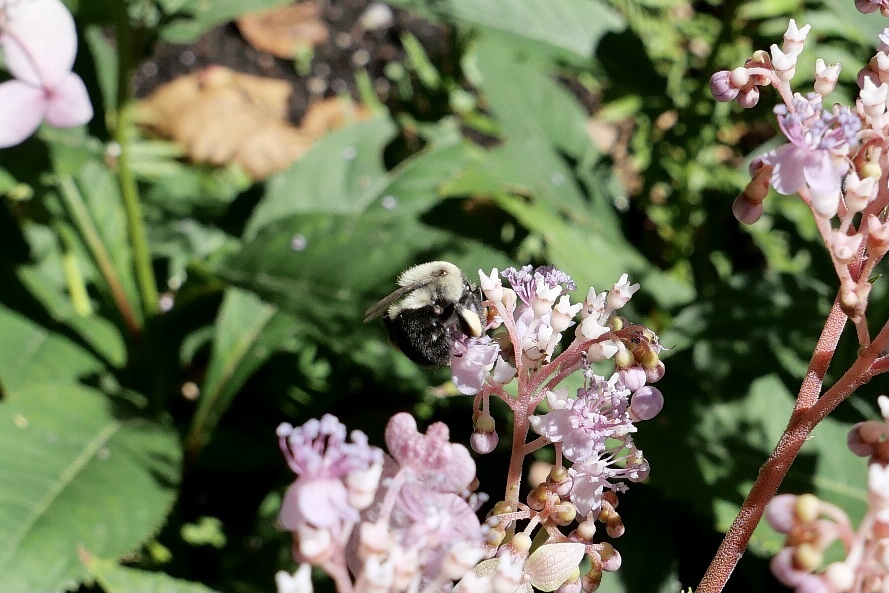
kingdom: Animalia
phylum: Arthropoda
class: Insecta
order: Hymenoptera
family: Apidae
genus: Bombus
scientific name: Bombus impatiens
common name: Common eastern bumble bee
